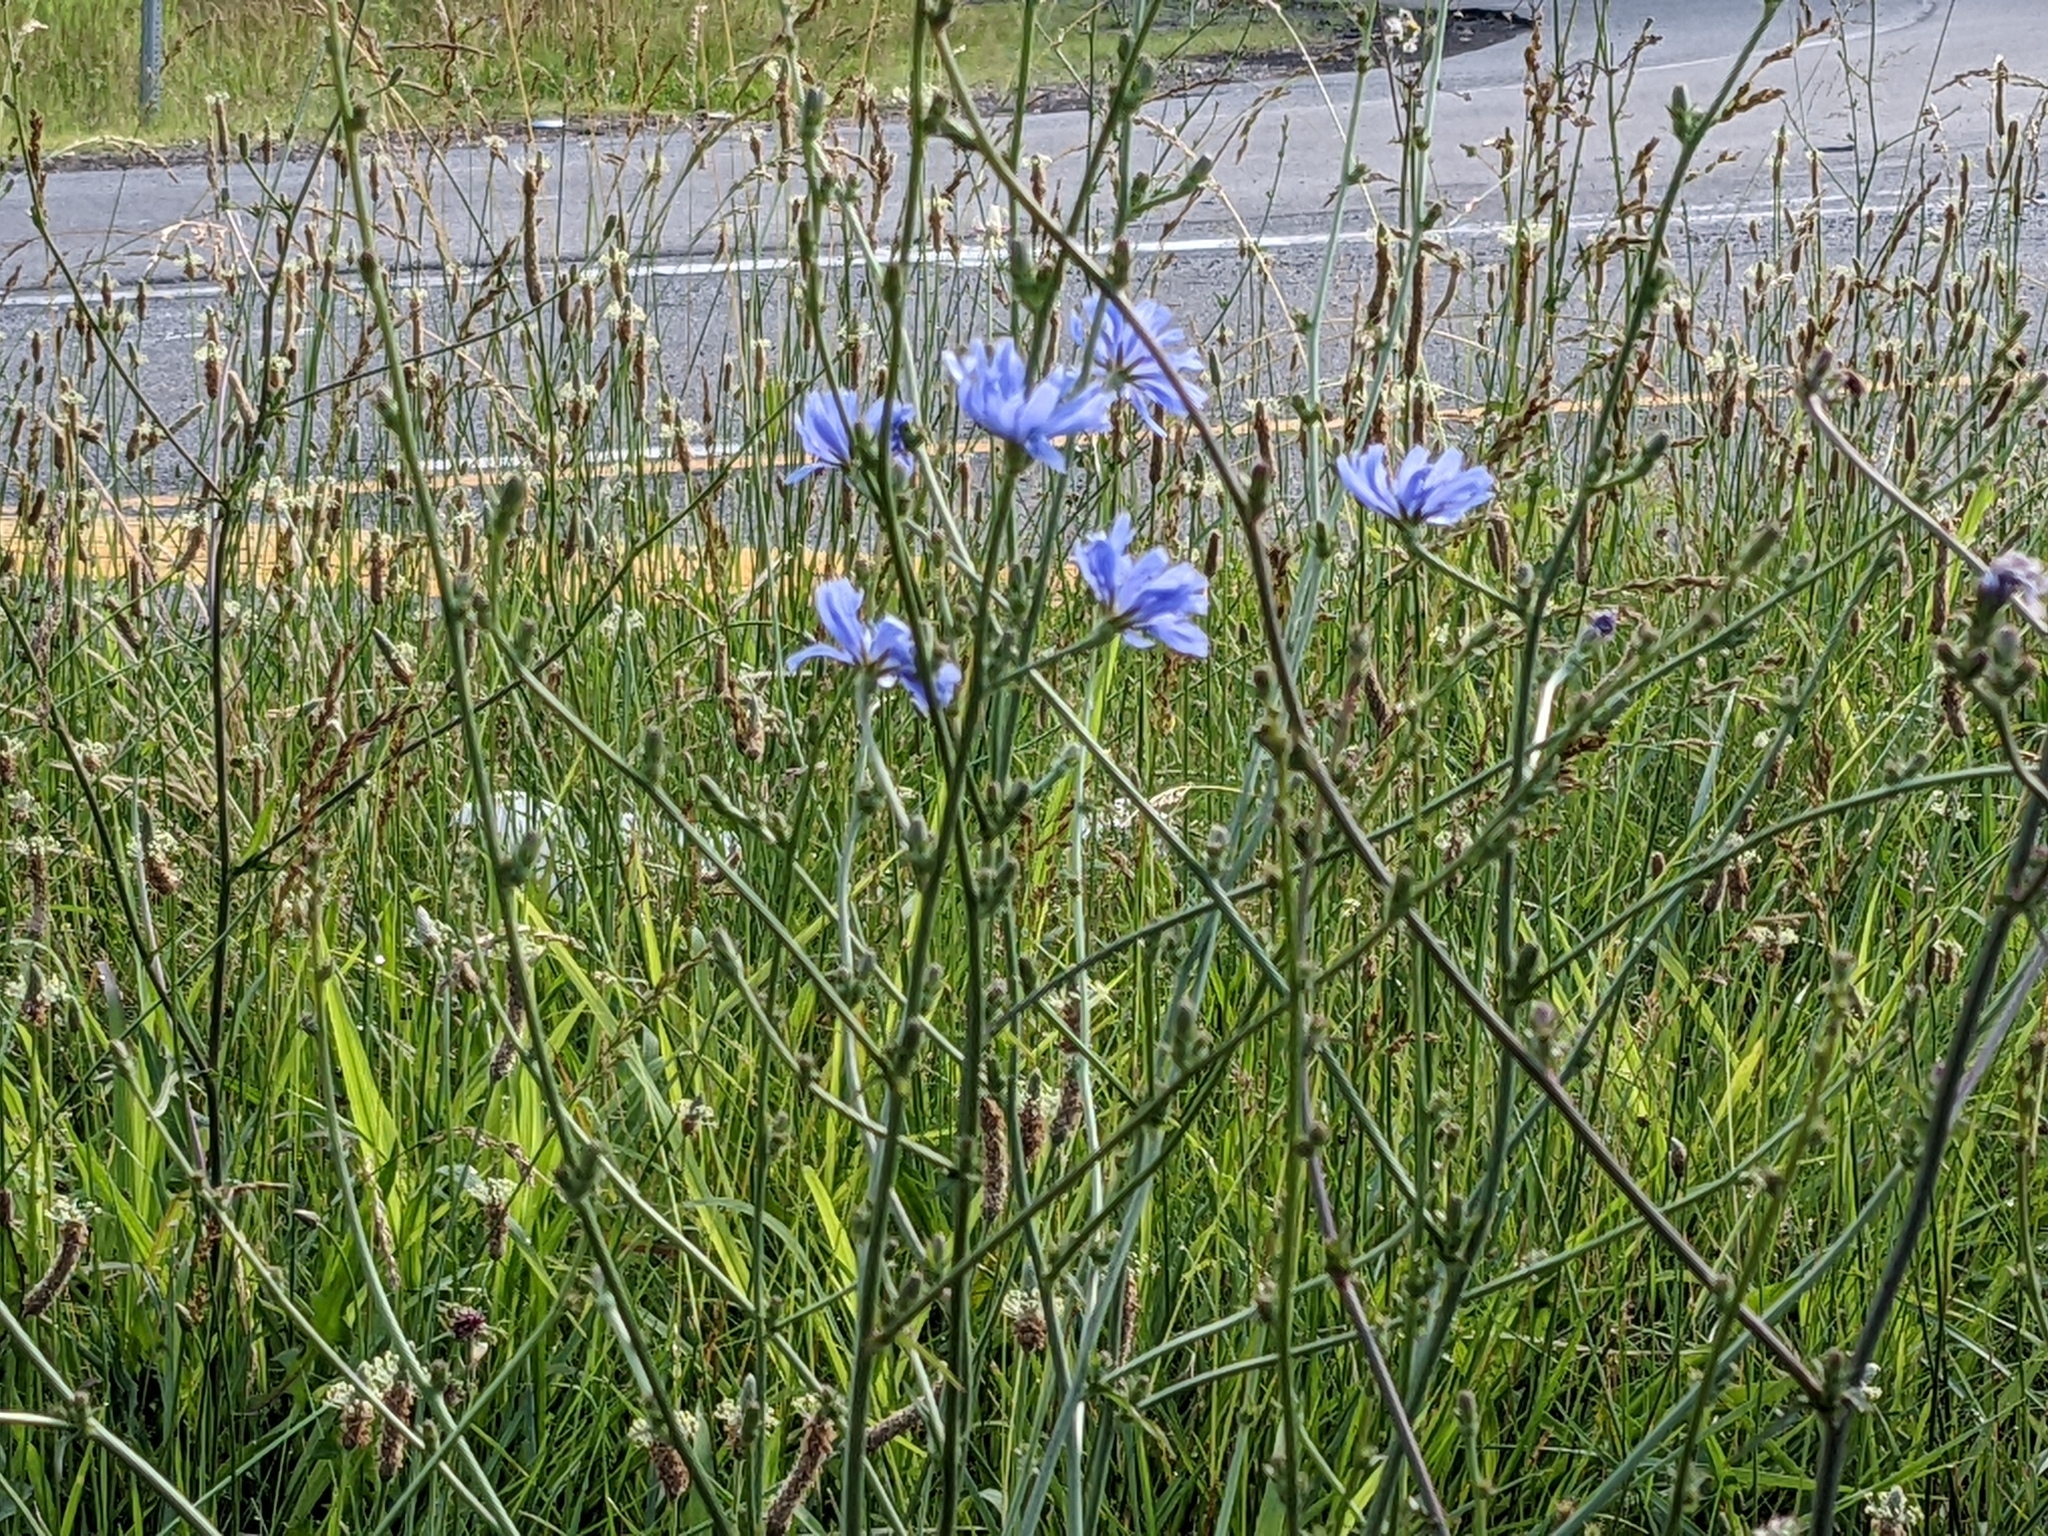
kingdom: Plantae
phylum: Tracheophyta
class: Magnoliopsida
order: Asterales
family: Asteraceae
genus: Cichorium
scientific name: Cichorium intybus
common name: Chicory
